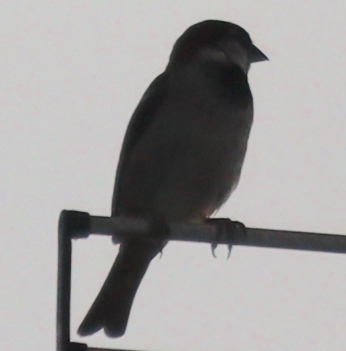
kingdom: Animalia
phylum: Chordata
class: Aves
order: Passeriformes
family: Passeridae
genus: Passer
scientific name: Passer domesticus
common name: House sparrow
